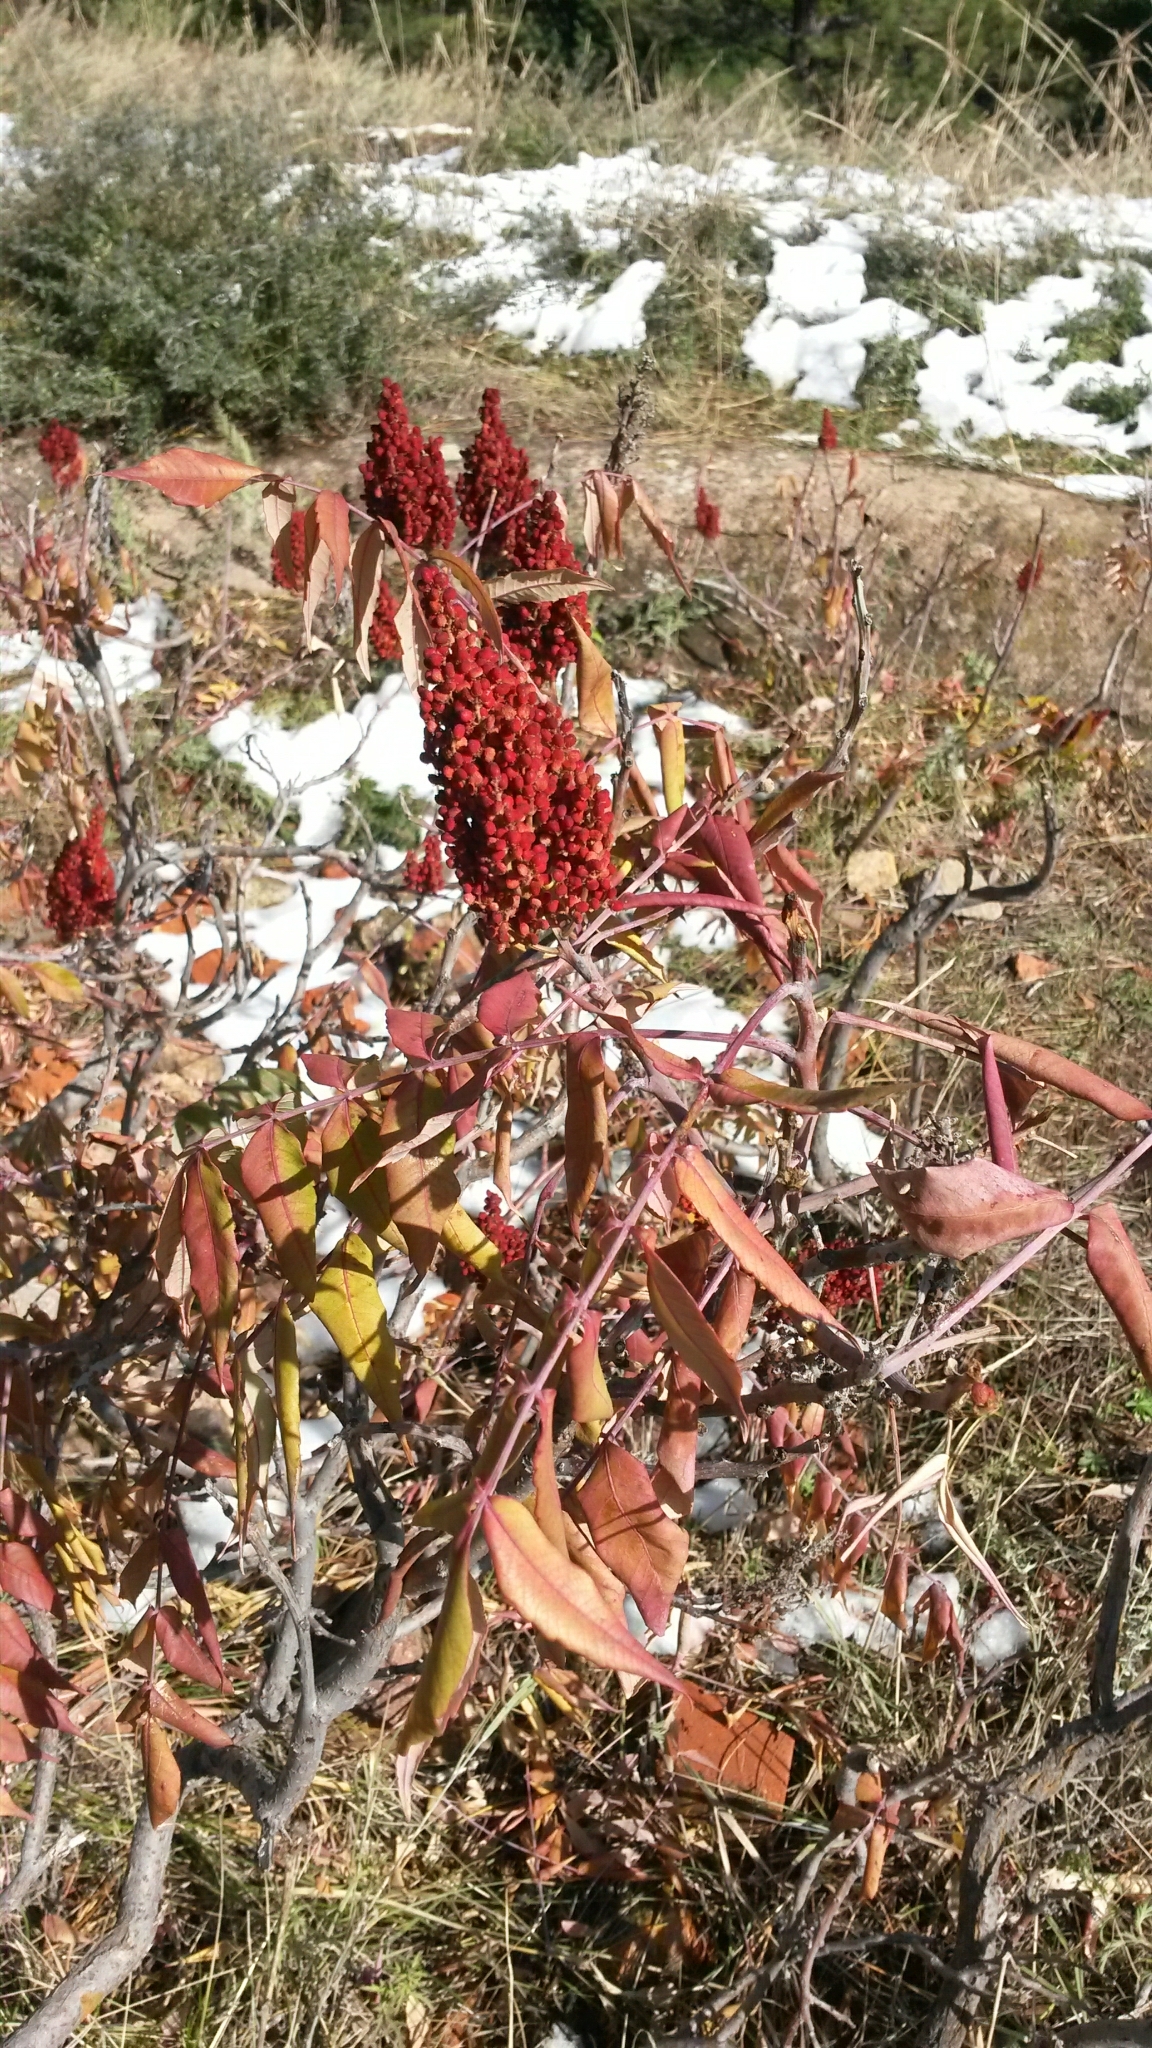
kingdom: Plantae
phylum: Tracheophyta
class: Magnoliopsida
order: Sapindales
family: Anacardiaceae
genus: Rhus
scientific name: Rhus glabra
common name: Scarlet sumac
